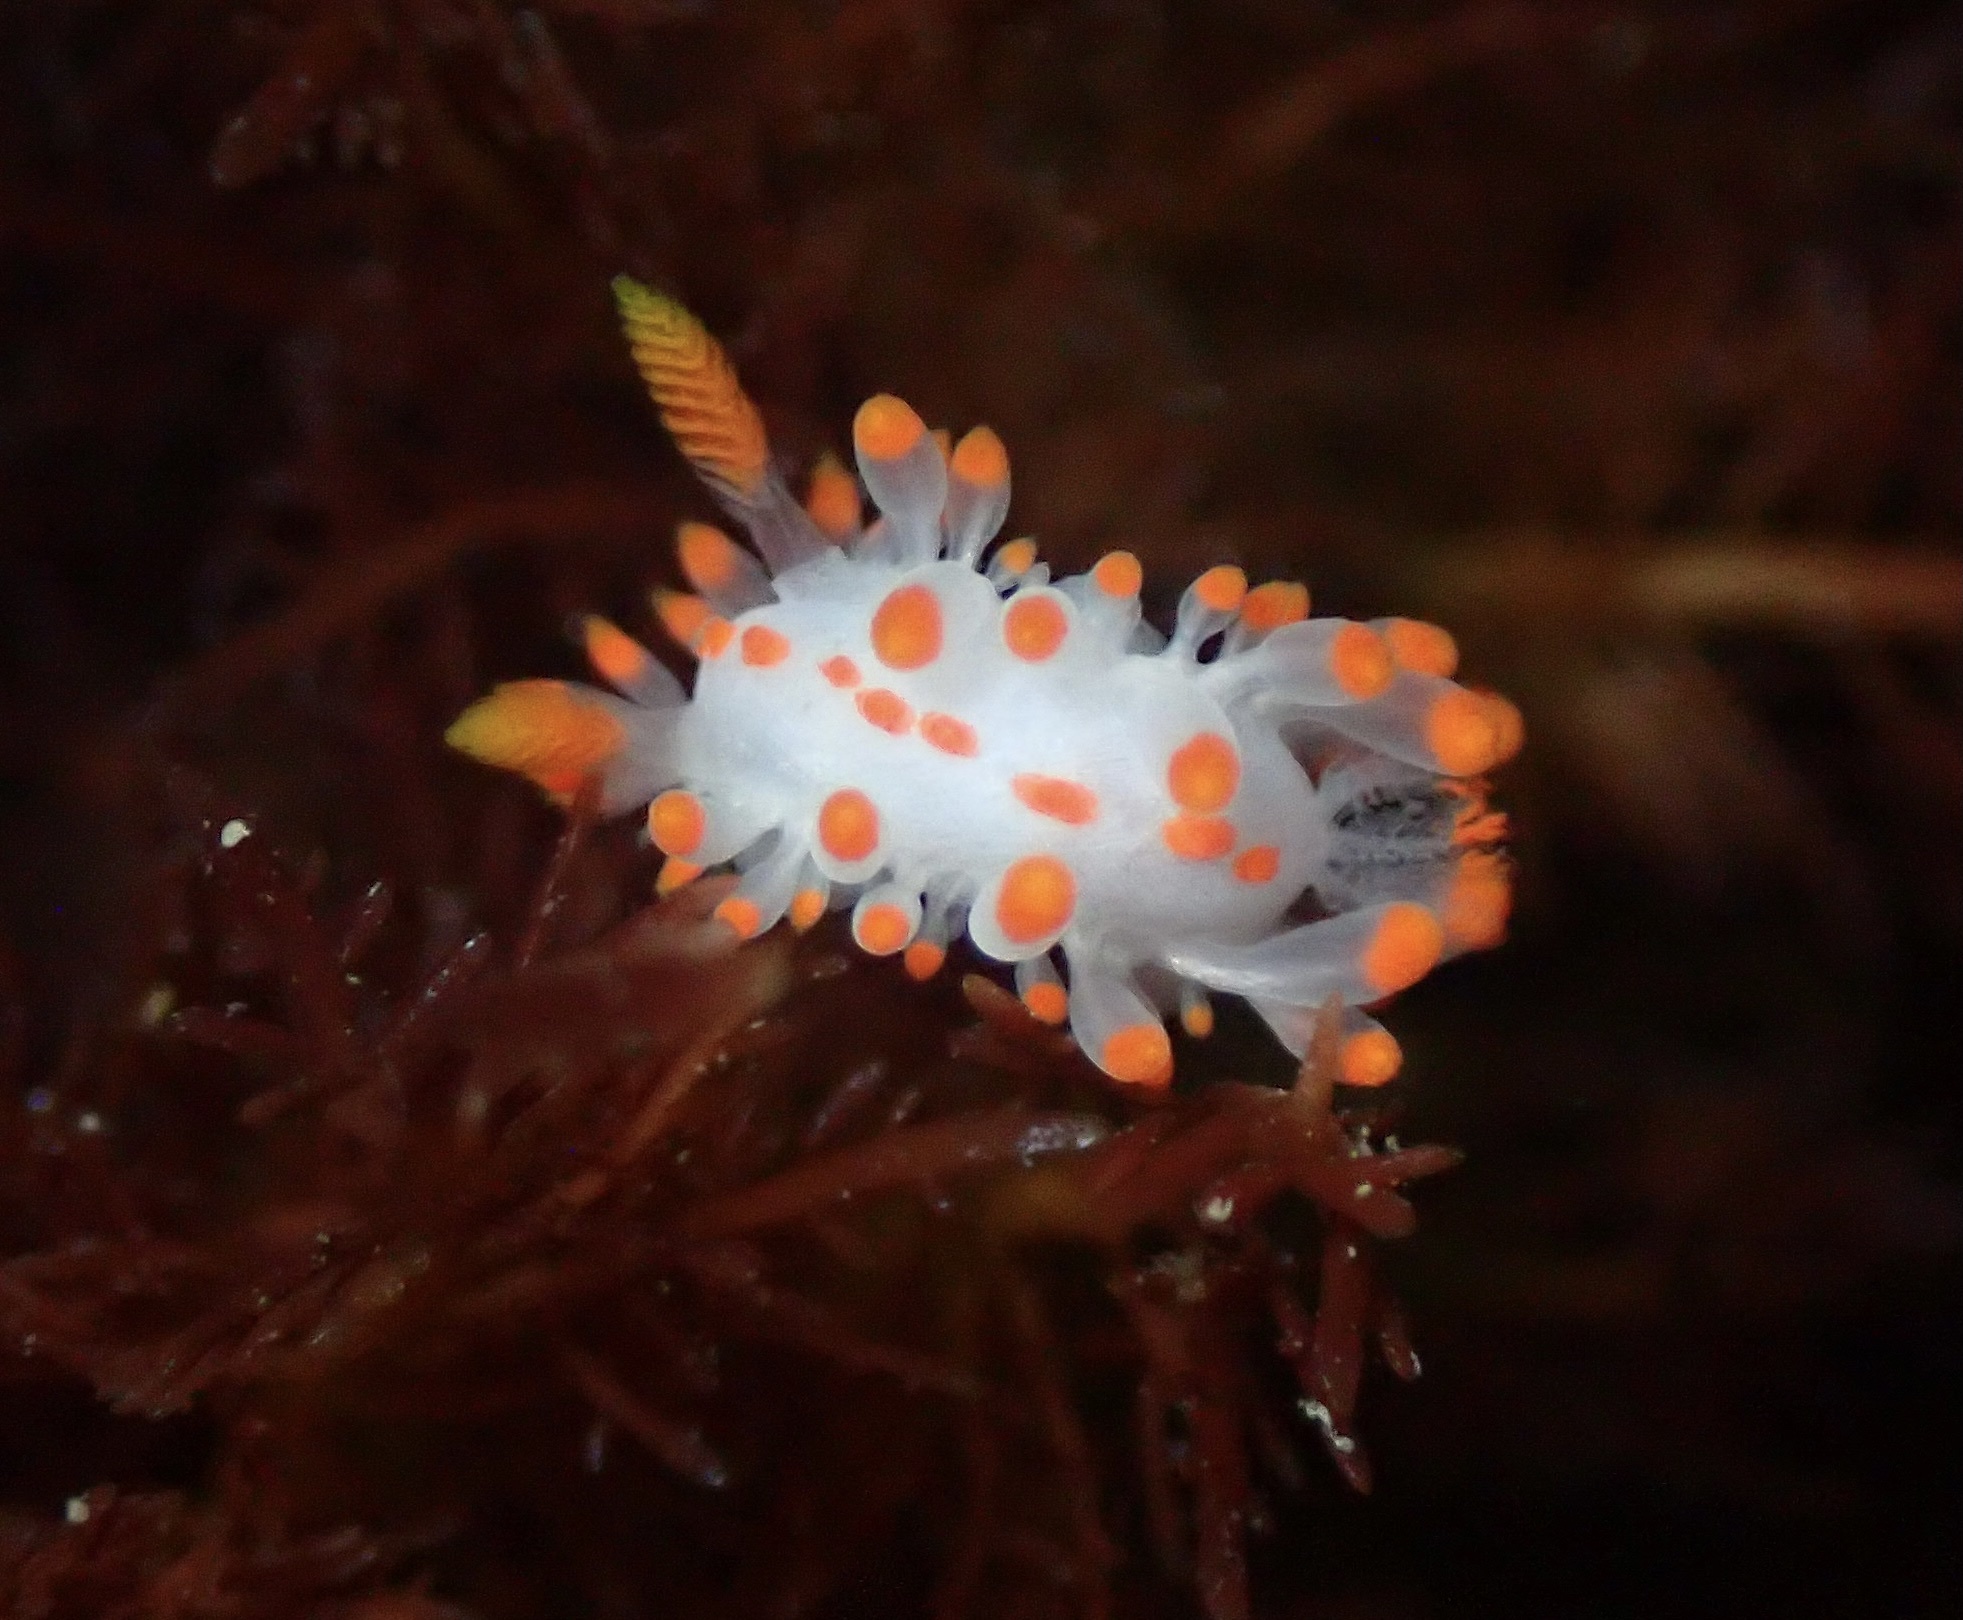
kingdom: Animalia
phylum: Mollusca
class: Gastropoda
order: Nudibranchia
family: Polyceridae
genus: Limacia
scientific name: Limacia mcdonaldi
